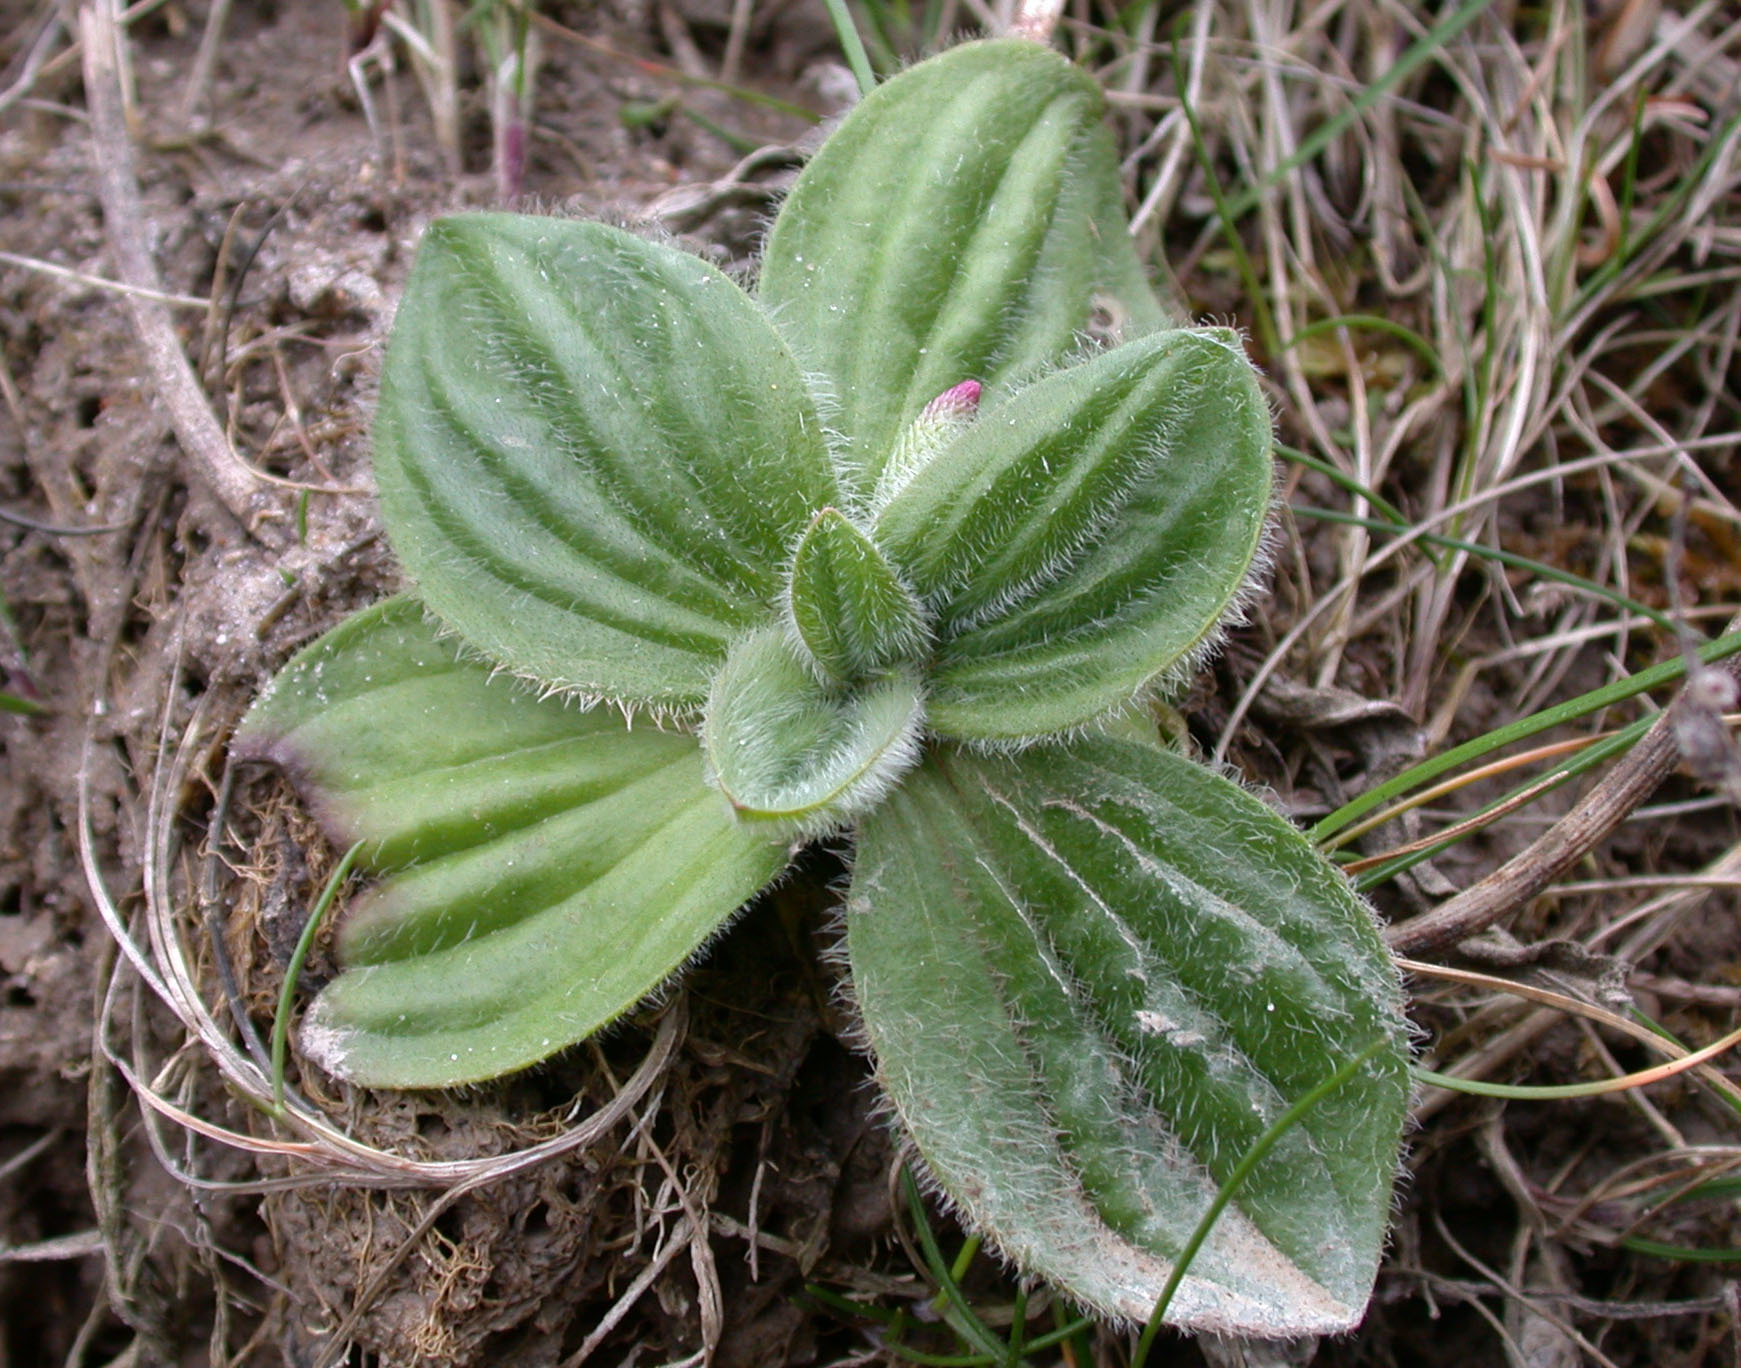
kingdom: Plantae
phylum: Tracheophyta
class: Magnoliopsida
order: Lamiales
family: Plantaginaceae
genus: Plantago
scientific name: Plantago media
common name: Hoary plantain
